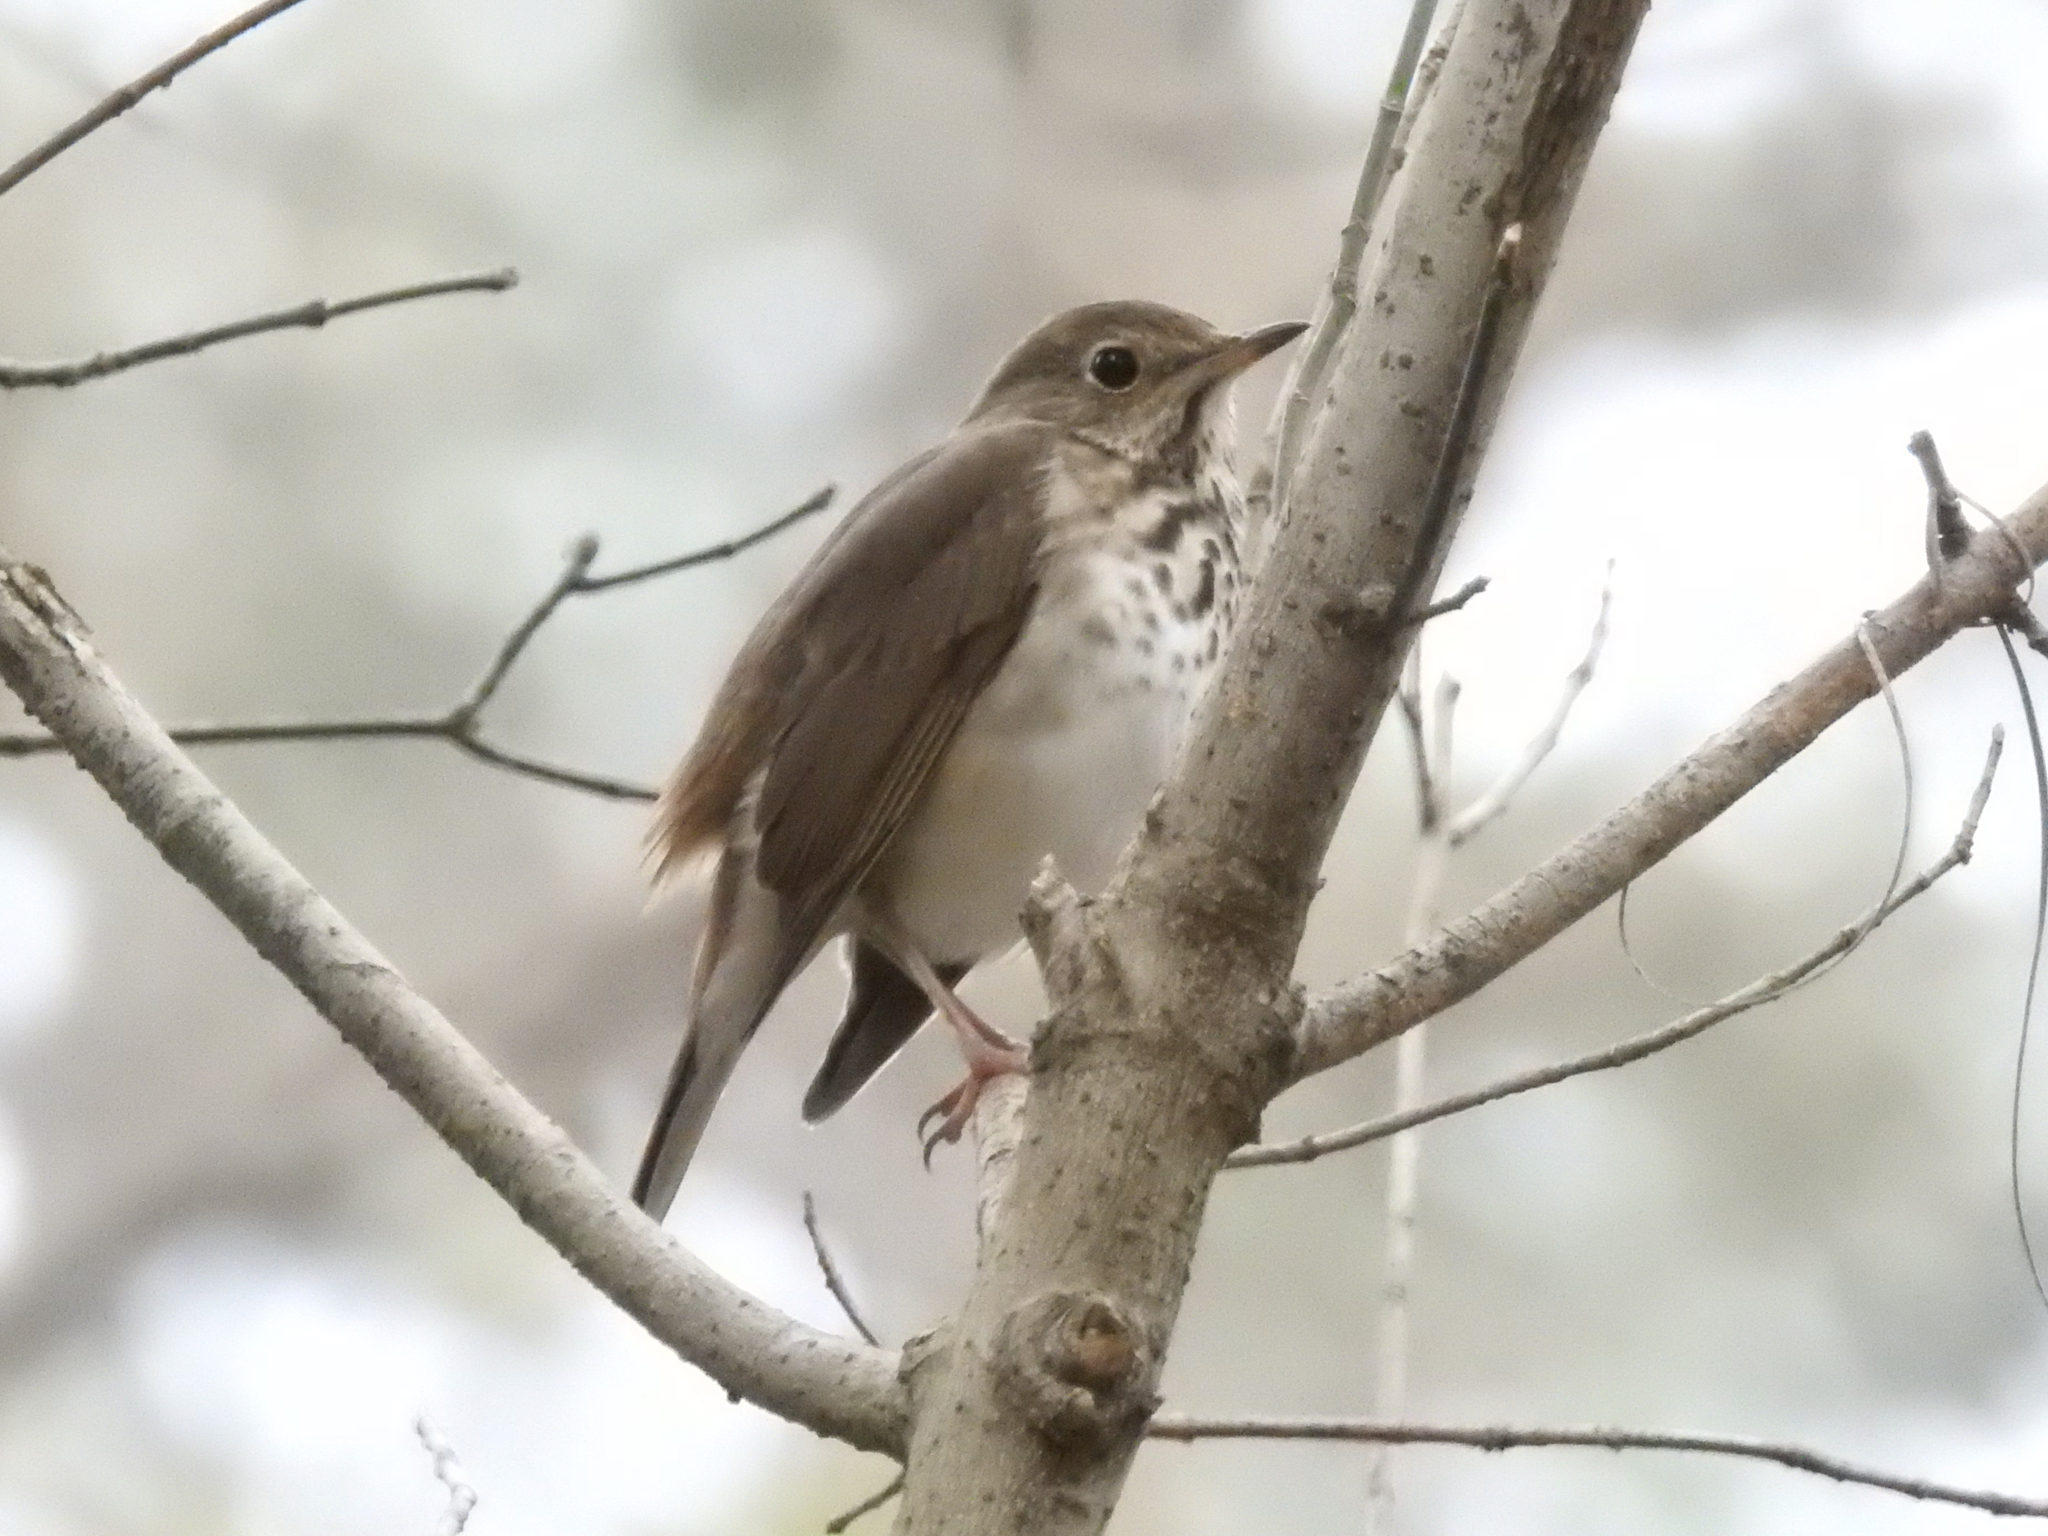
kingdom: Animalia
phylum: Chordata
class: Aves
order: Passeriformes
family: Turdidae
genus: Catharus
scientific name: Catharus guttatus
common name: Hermit thrush
